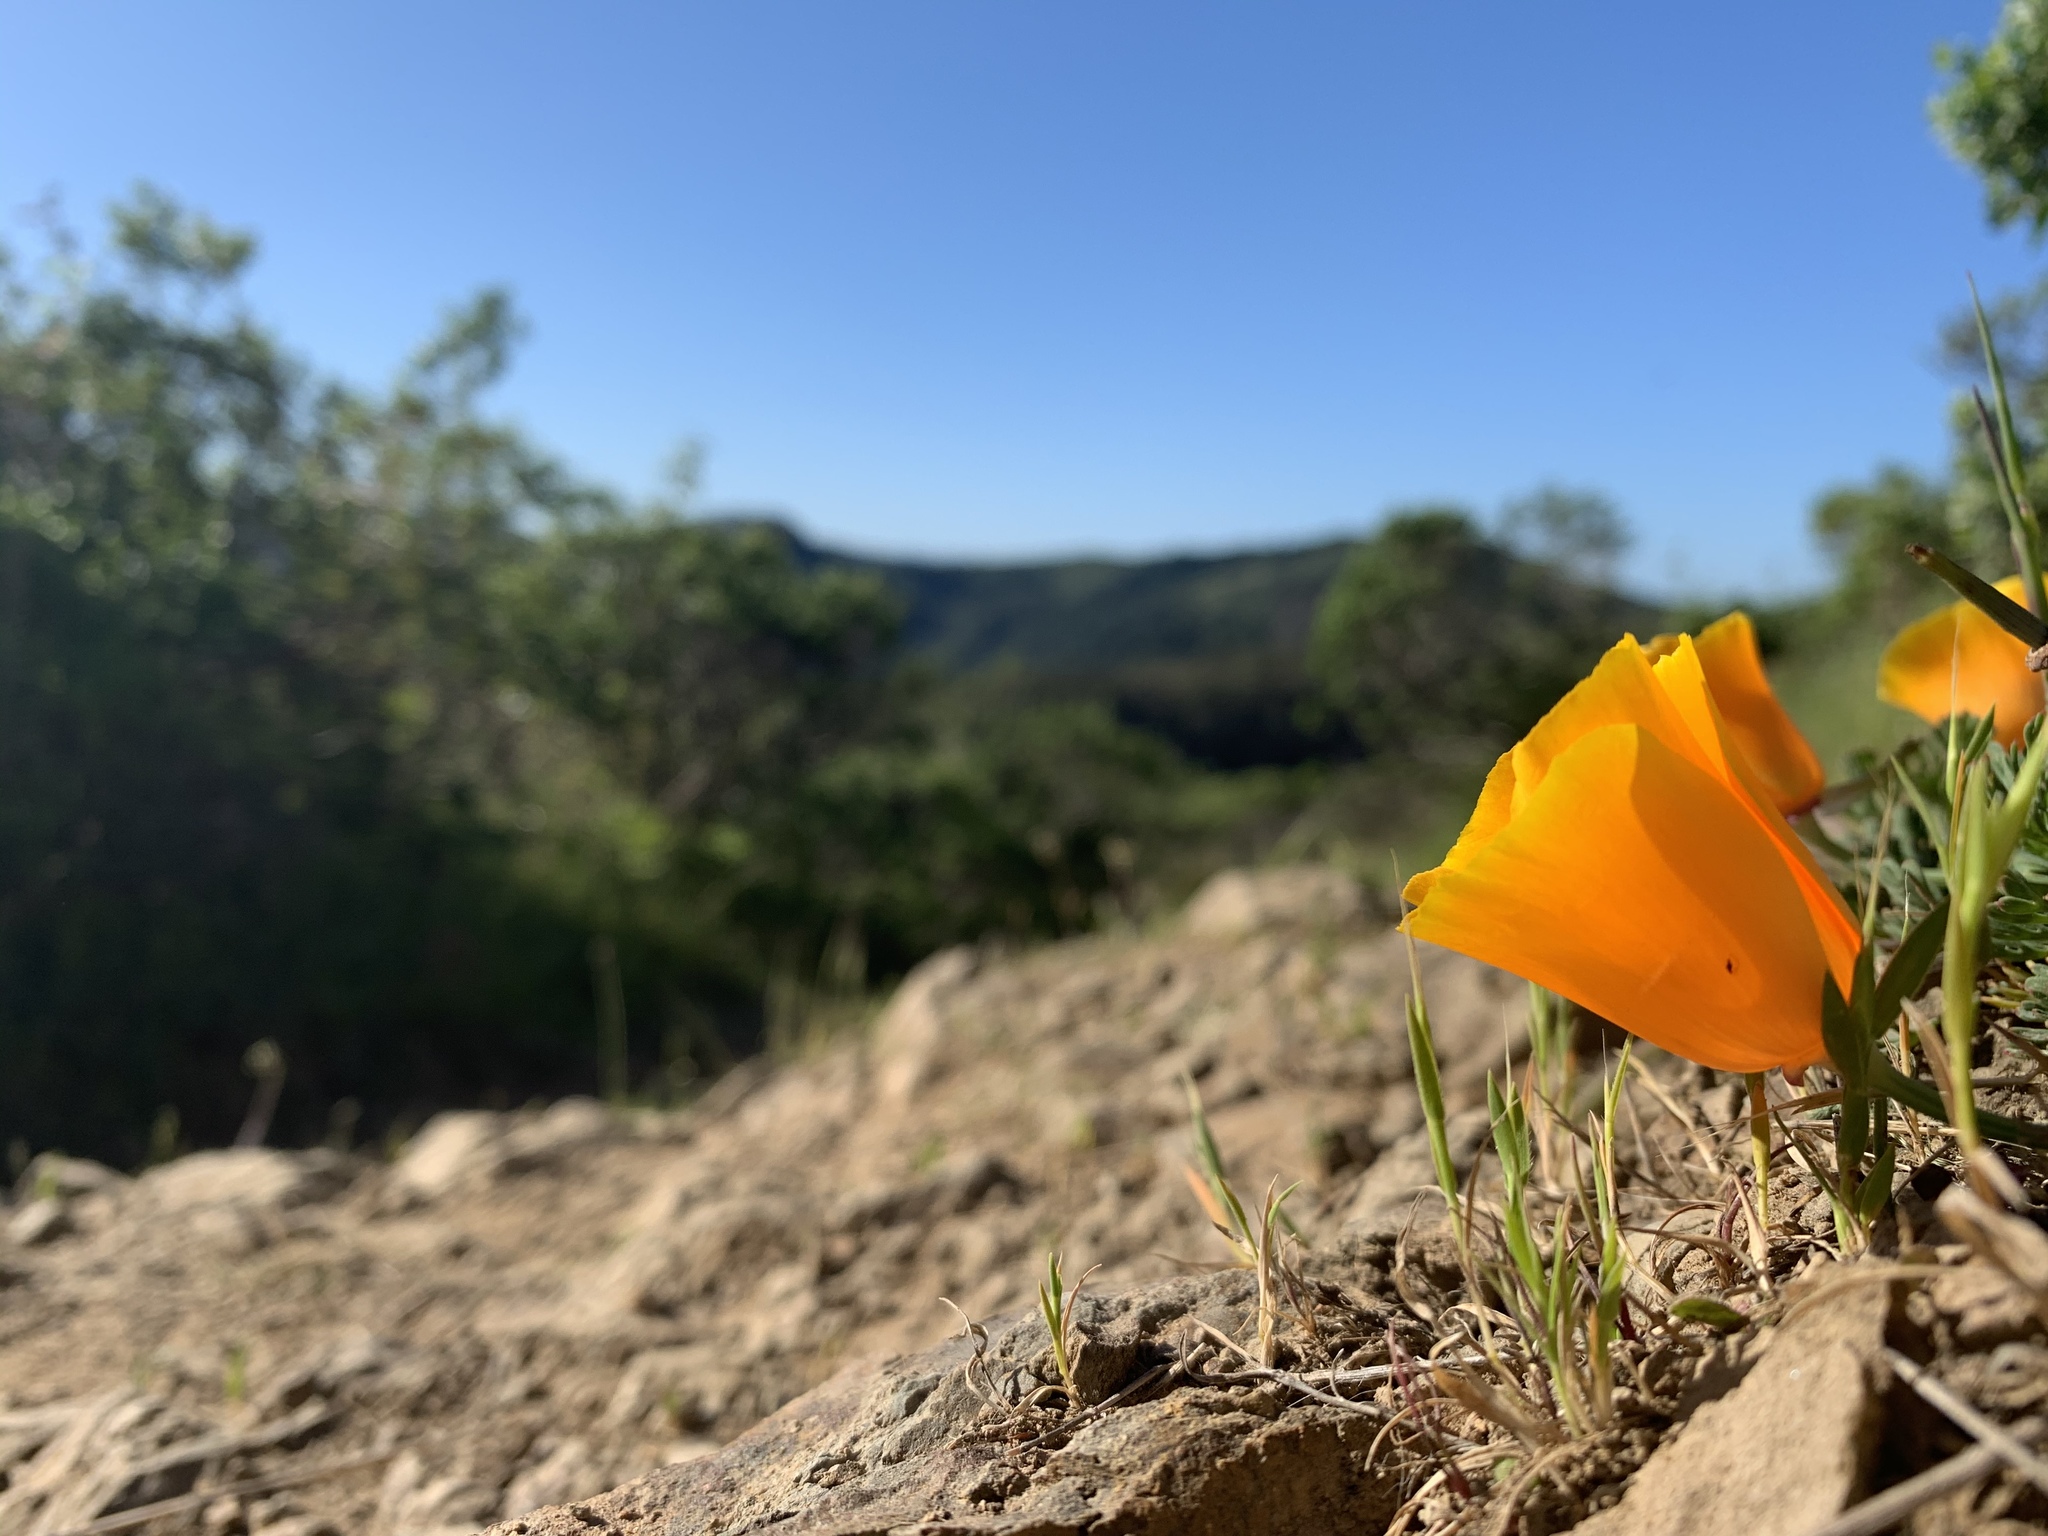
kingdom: Plantae
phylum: Tracheophyta
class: Magnoliopsida
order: Ranunculales
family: Papaveraceae
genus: Eschscholzia
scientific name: Eschscholzia californica
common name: California poppy
